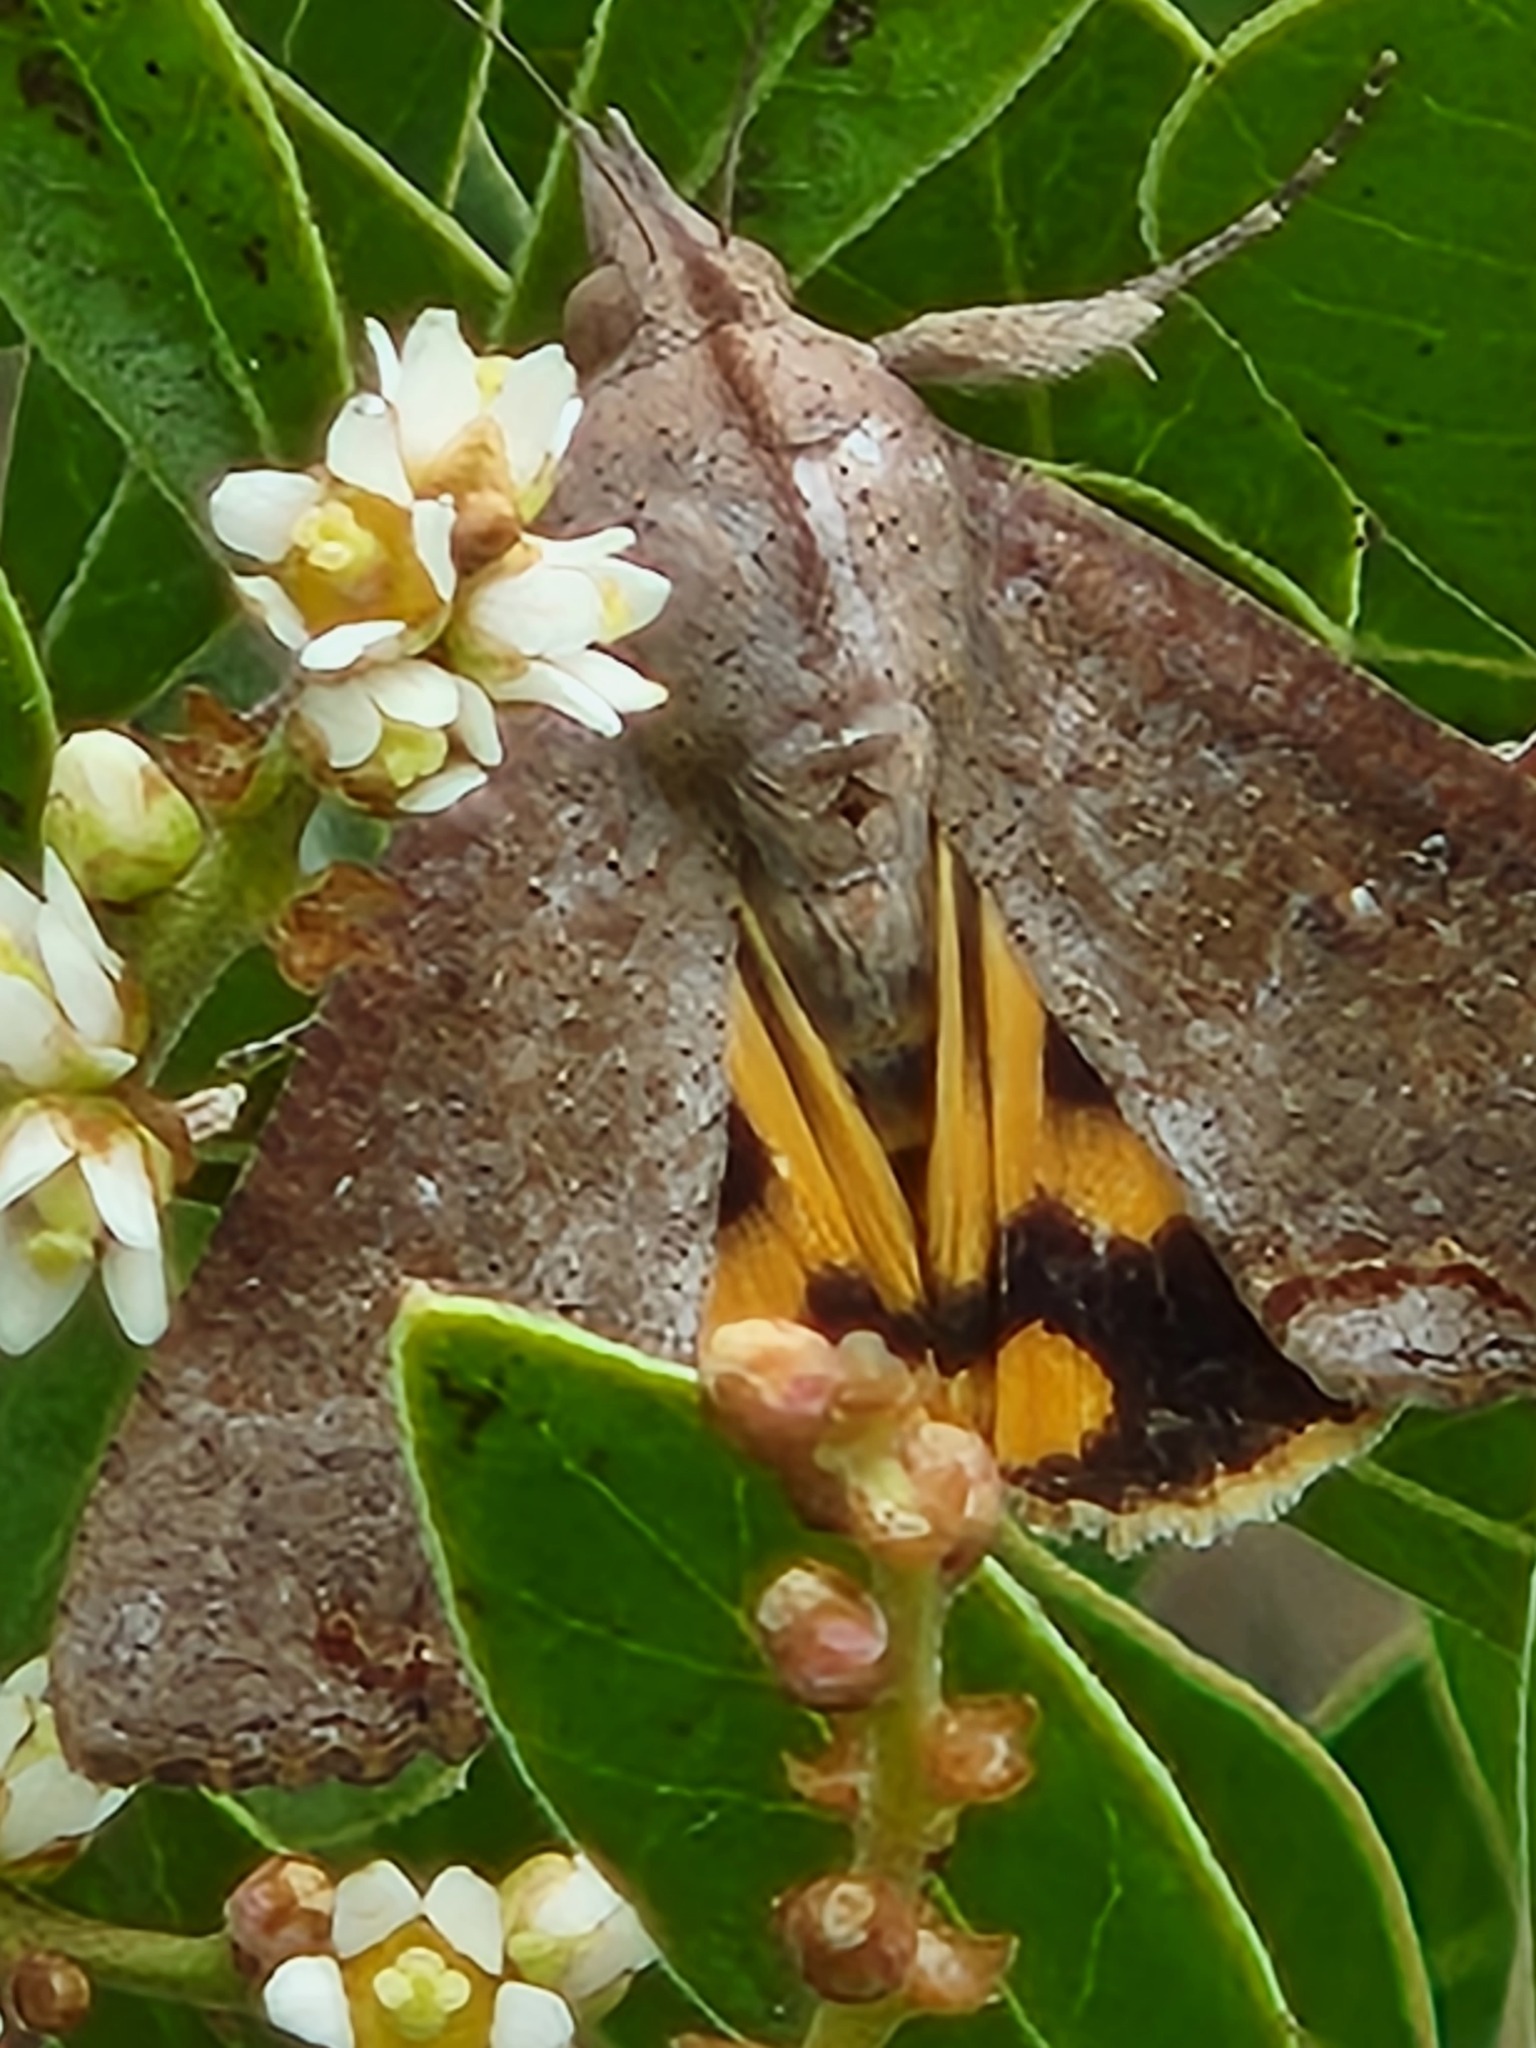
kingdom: Animalia
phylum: Arthropoda
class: Insecta
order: Lepidoptera
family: Erebidae
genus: Hypocala
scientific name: Hypocala andremona
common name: Hypocala moth
